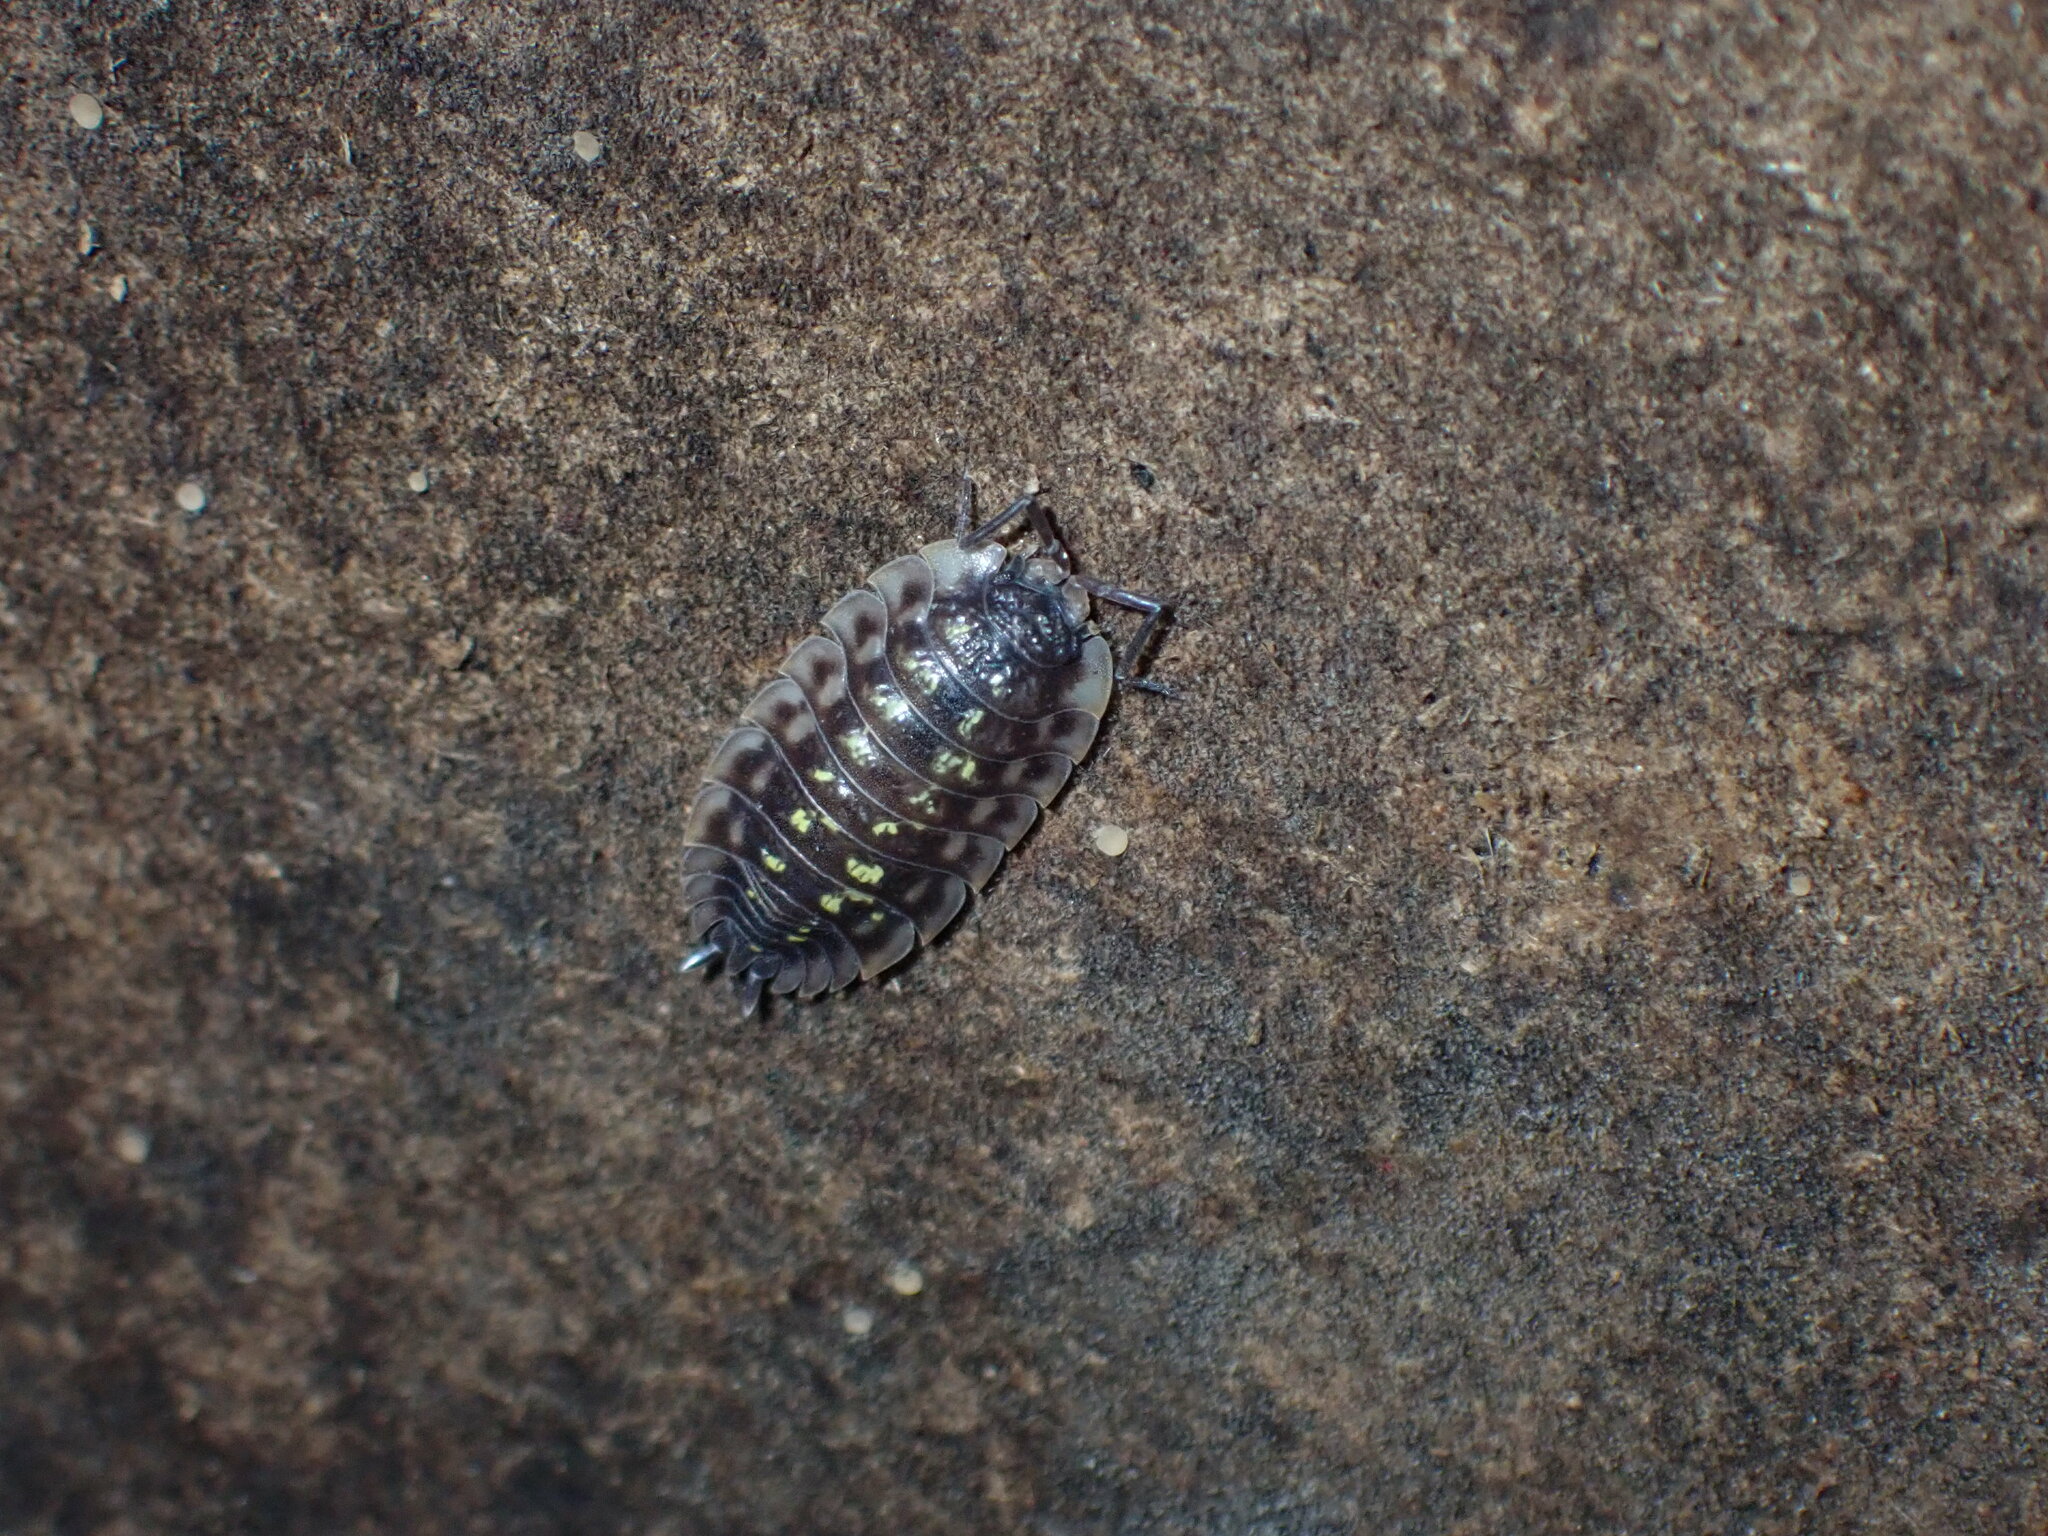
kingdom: Animalia
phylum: Arthropoda
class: Malacostraca
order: Isopoda
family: Oniscidae
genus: Oniscus
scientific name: Oniscus asellus
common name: Common shiny woodlouse
